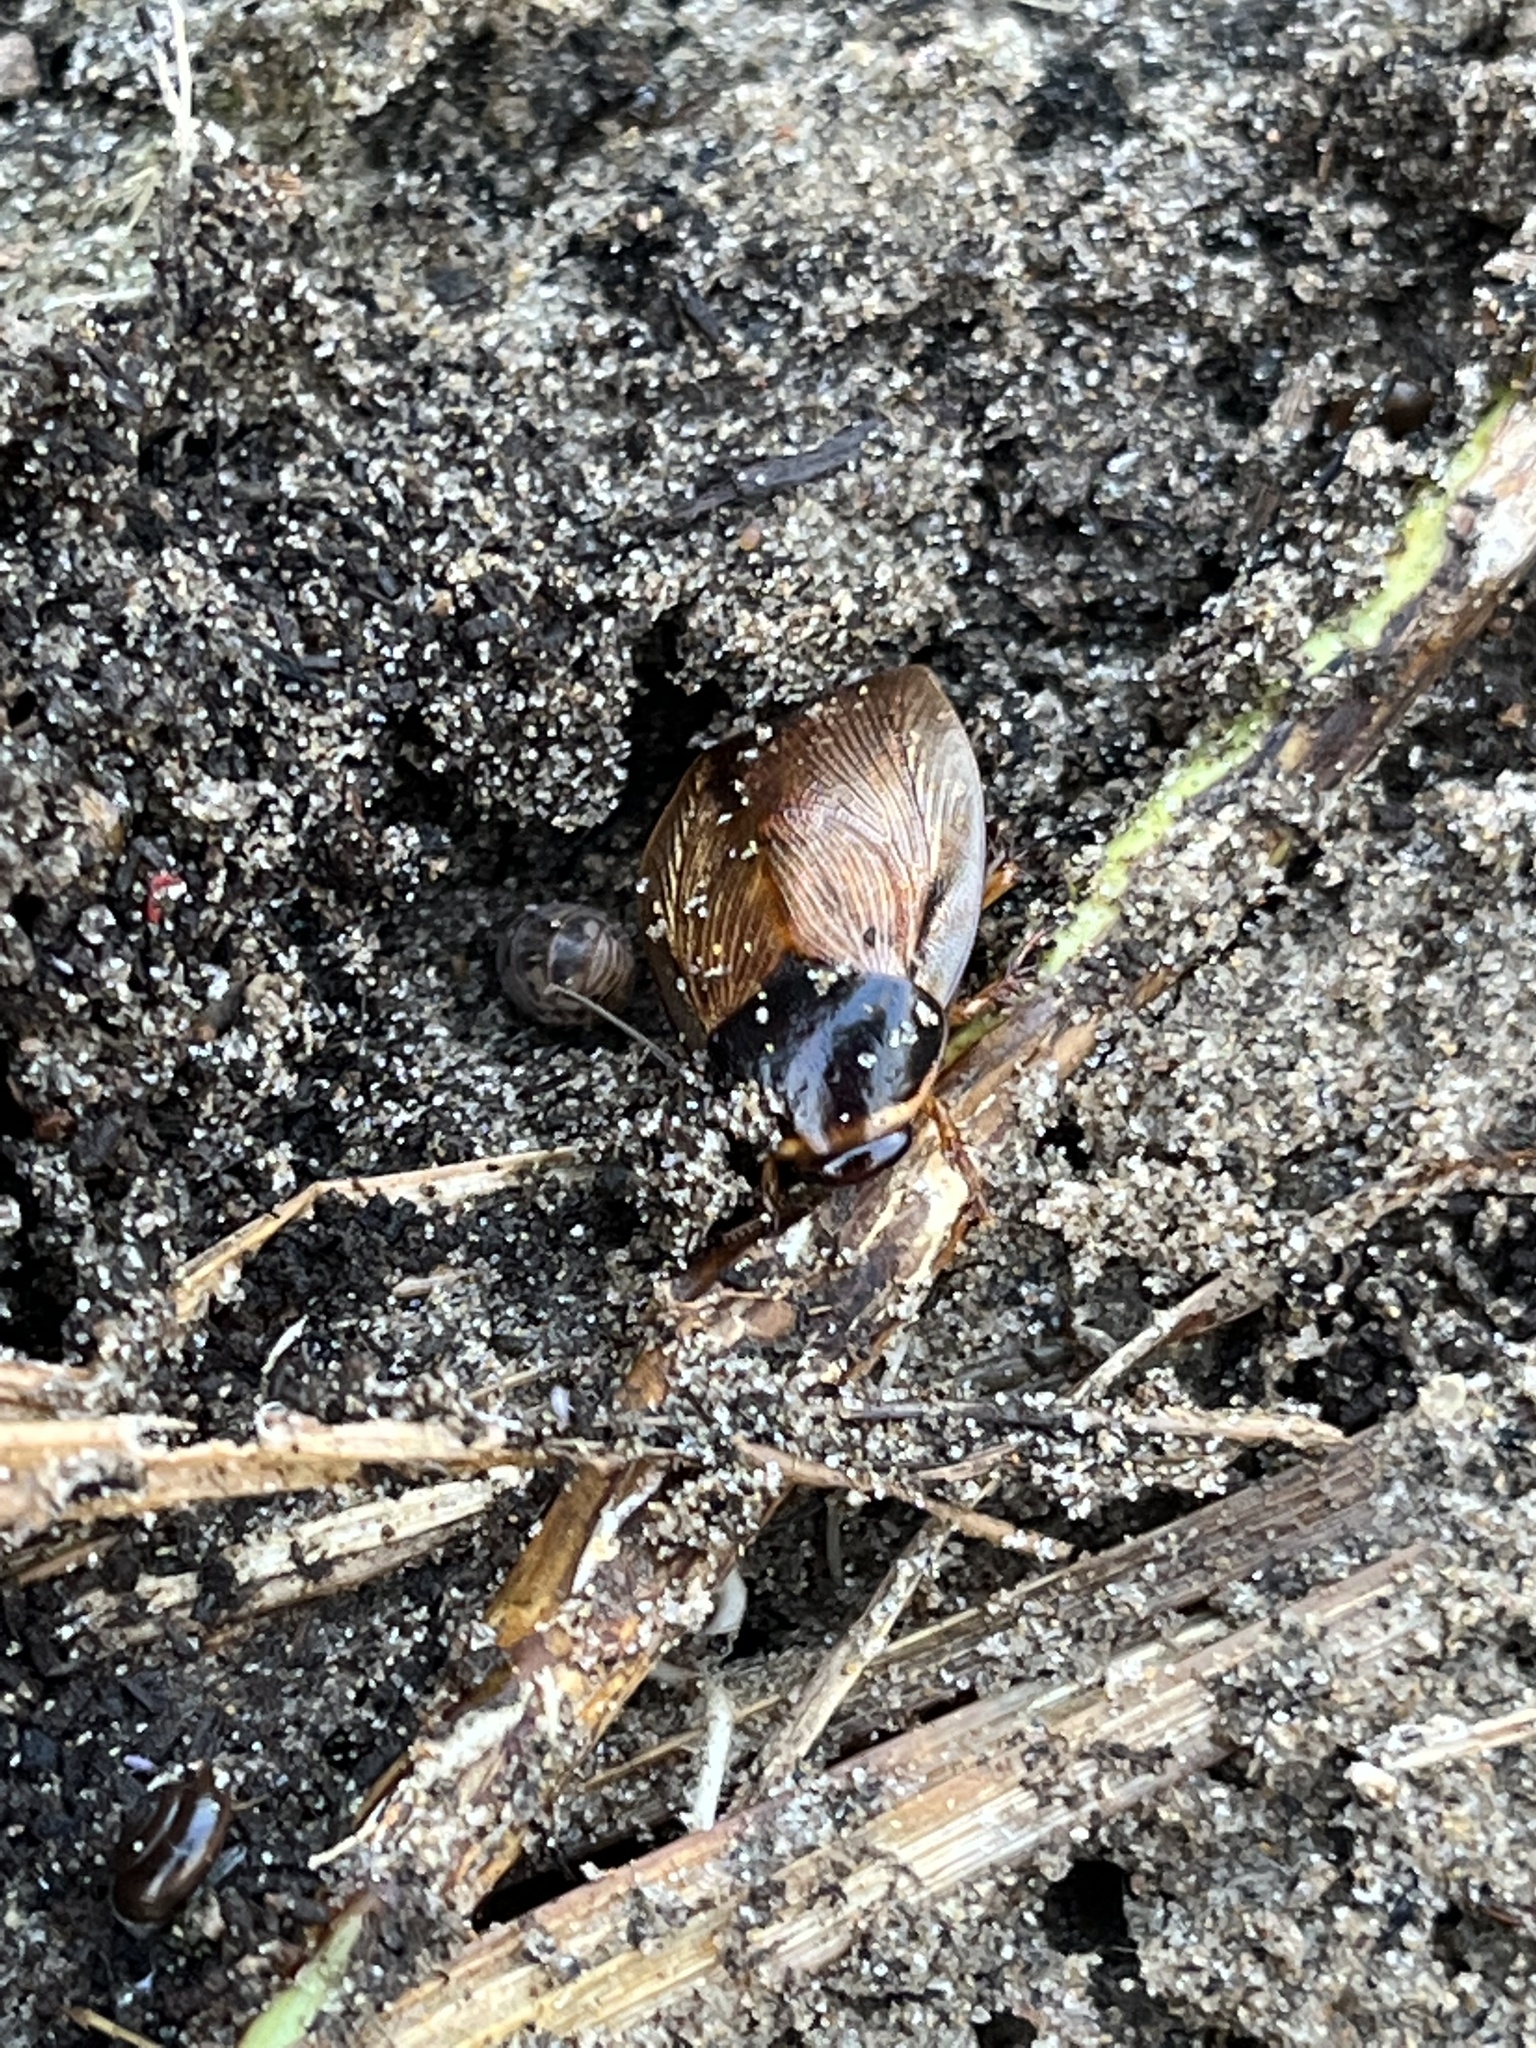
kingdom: Animalia
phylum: Arthropoda
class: Insecta
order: Blattodea
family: Blaberidae
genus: Pycnoscelus
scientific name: Pycnoscelus surinamensis
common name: Surinam cockroach
